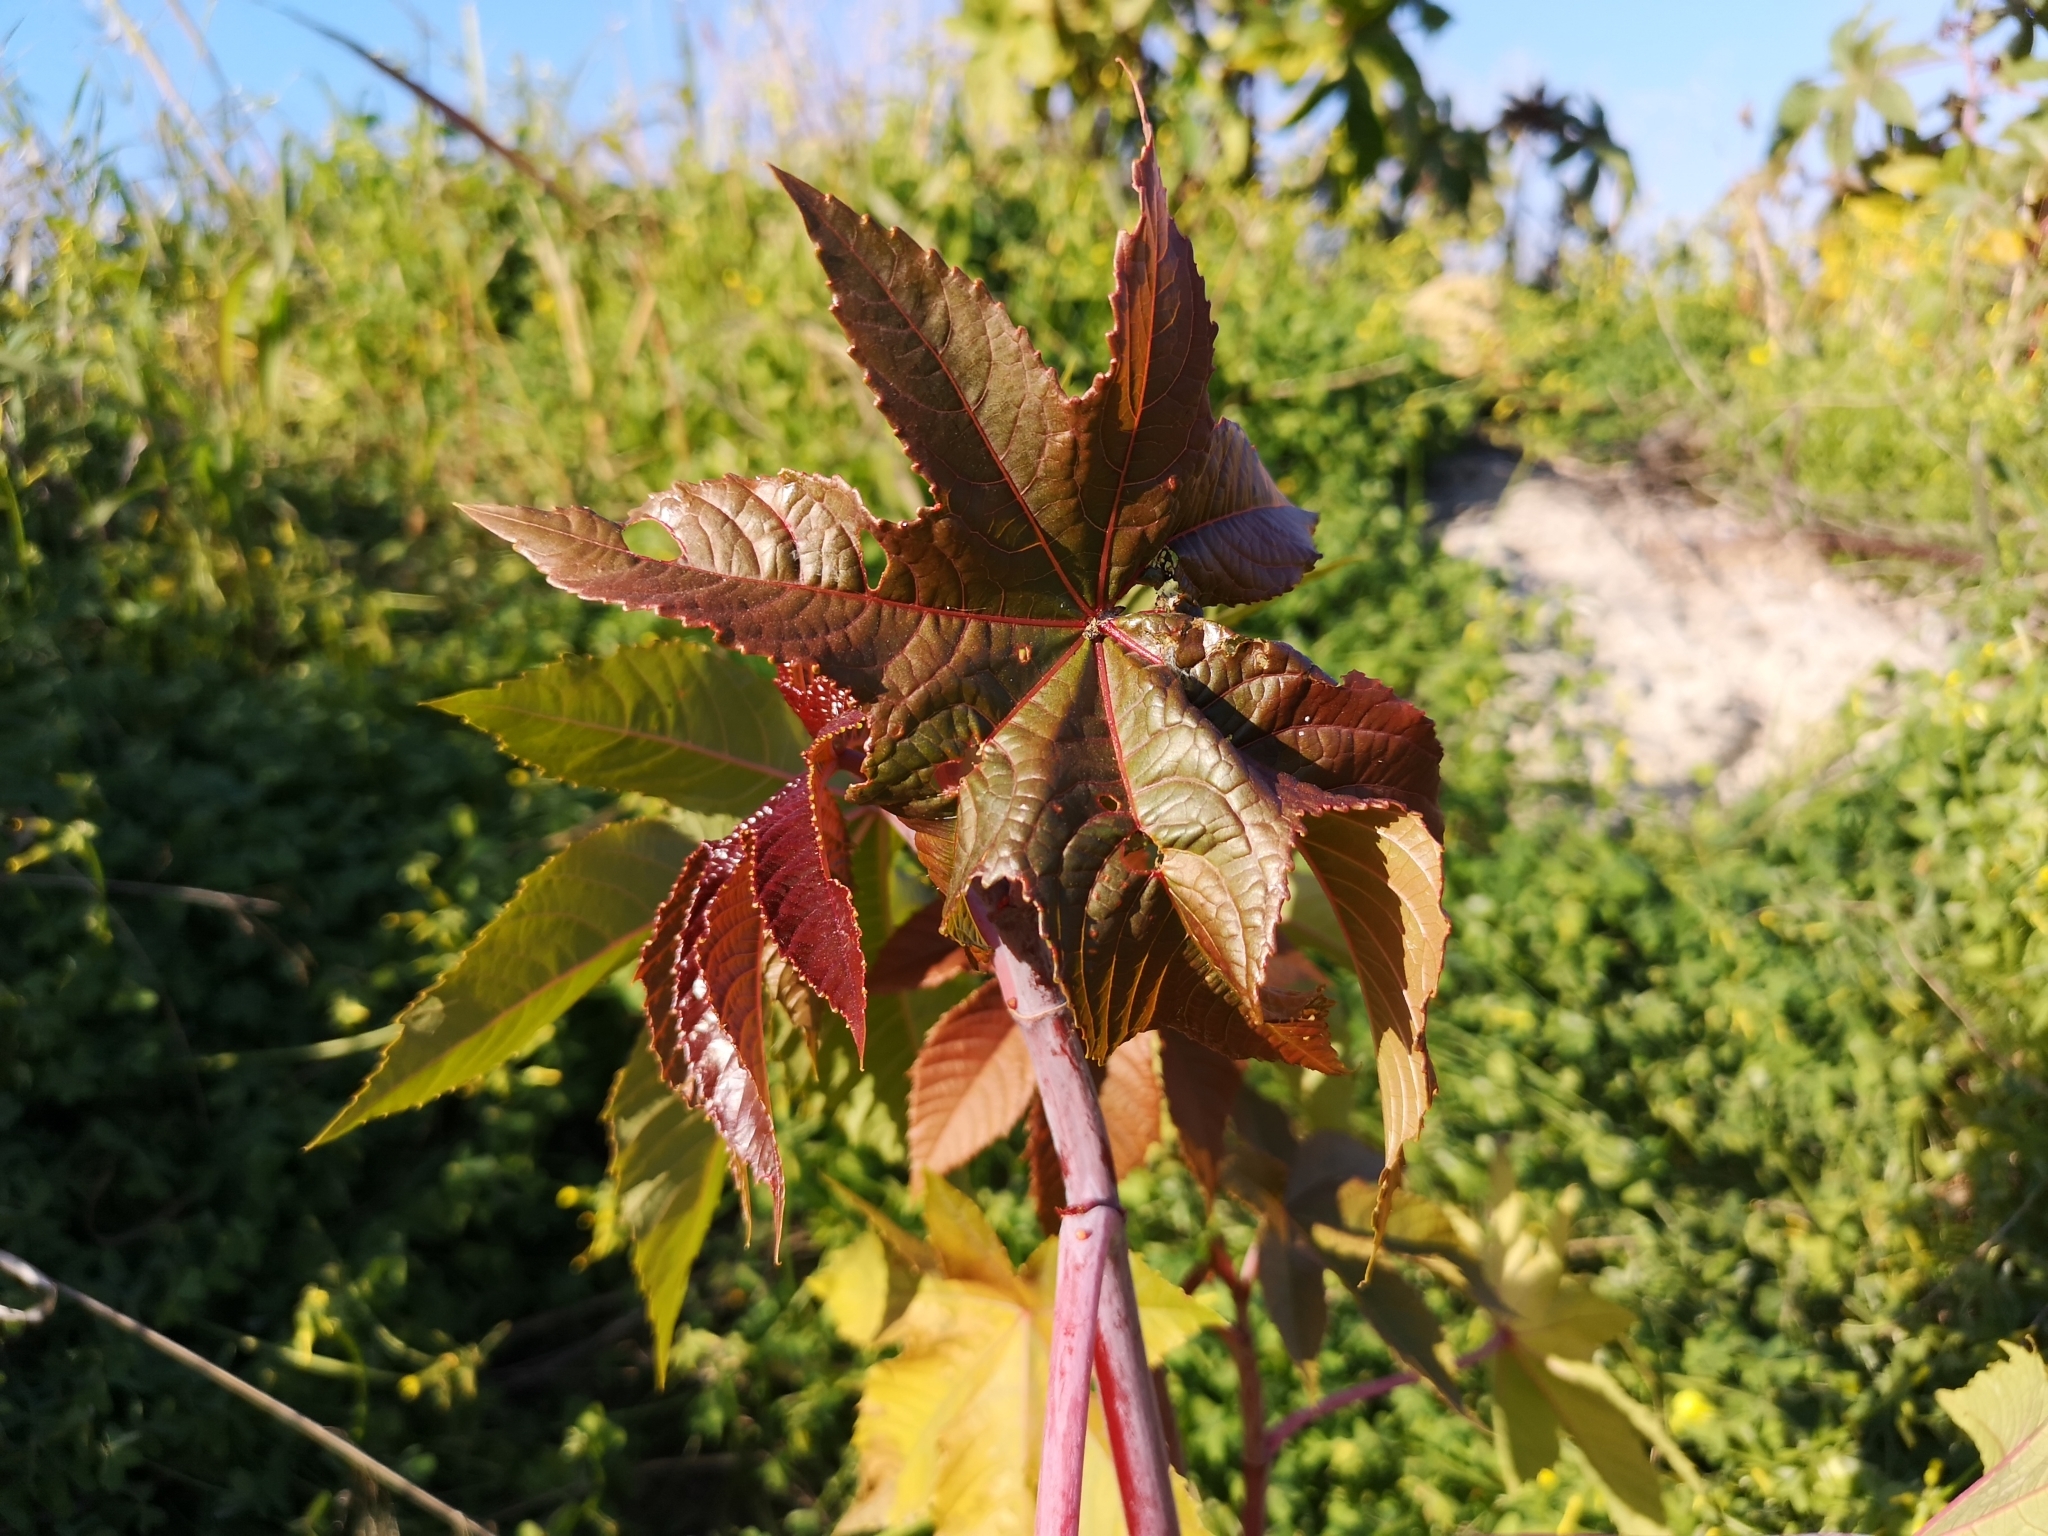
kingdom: Plantae
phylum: Tracheophyta
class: Magnoliopsida
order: Malpighiales
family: Euphorbiaceae
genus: Ricinus
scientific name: Ricinus communis
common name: Castor-oil-plant
